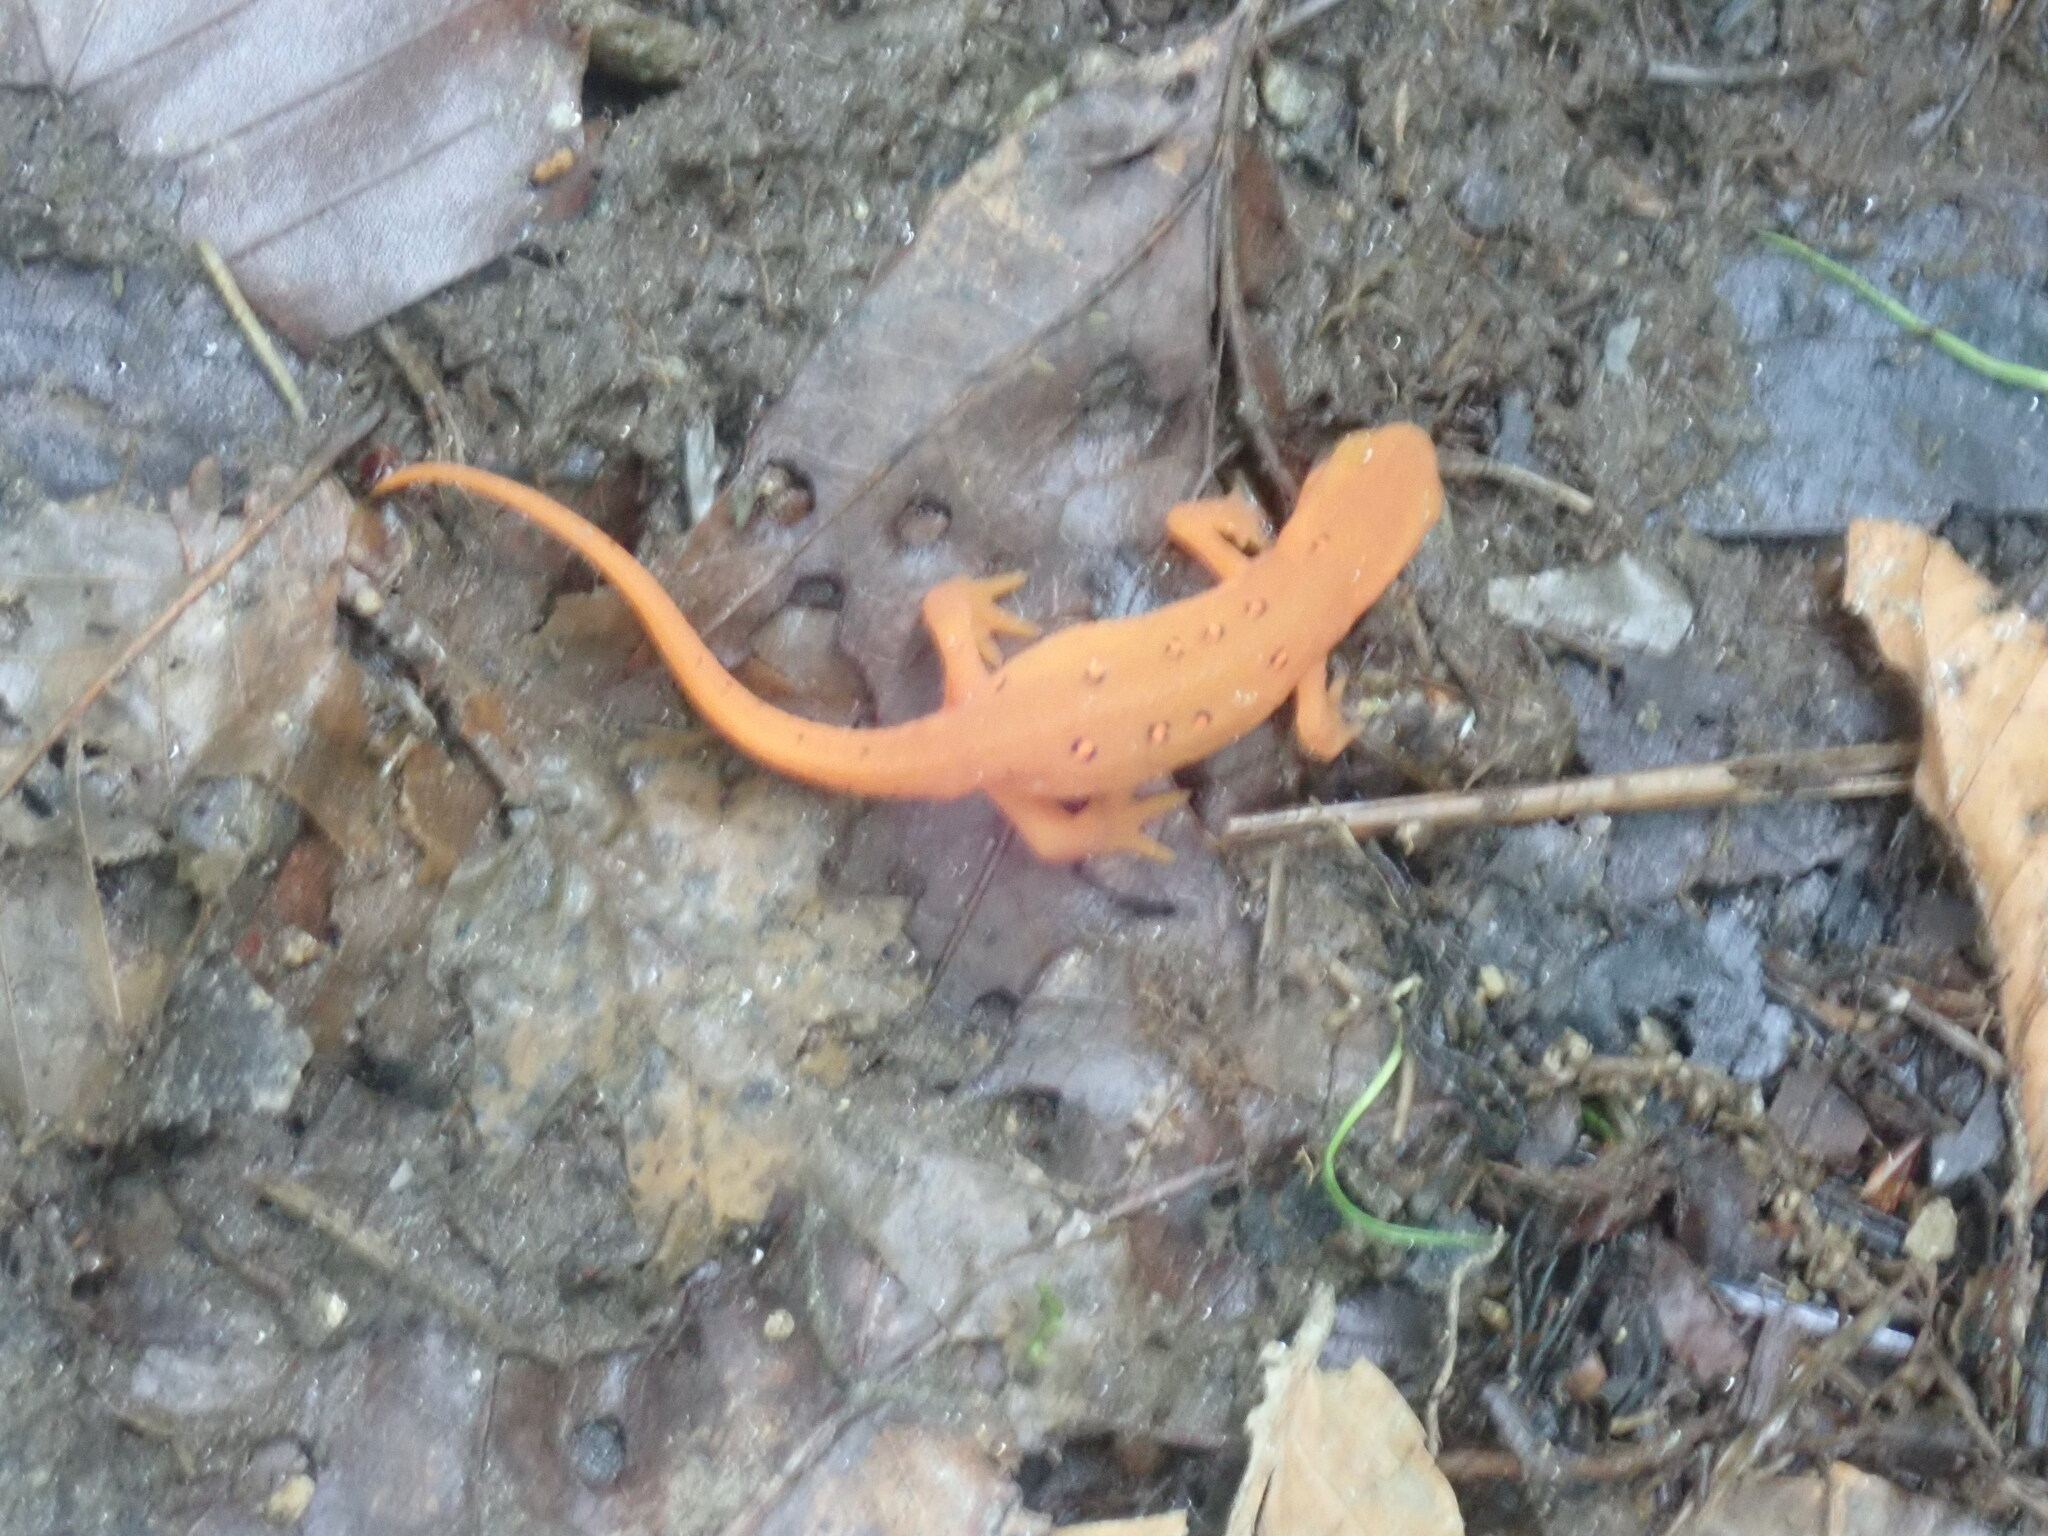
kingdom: Animalia
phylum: Chordata
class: Amphibia
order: Caudata
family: Salamandridae
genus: Notophthalmus
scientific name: Notophthalmus viridescens
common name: Eastern newt
